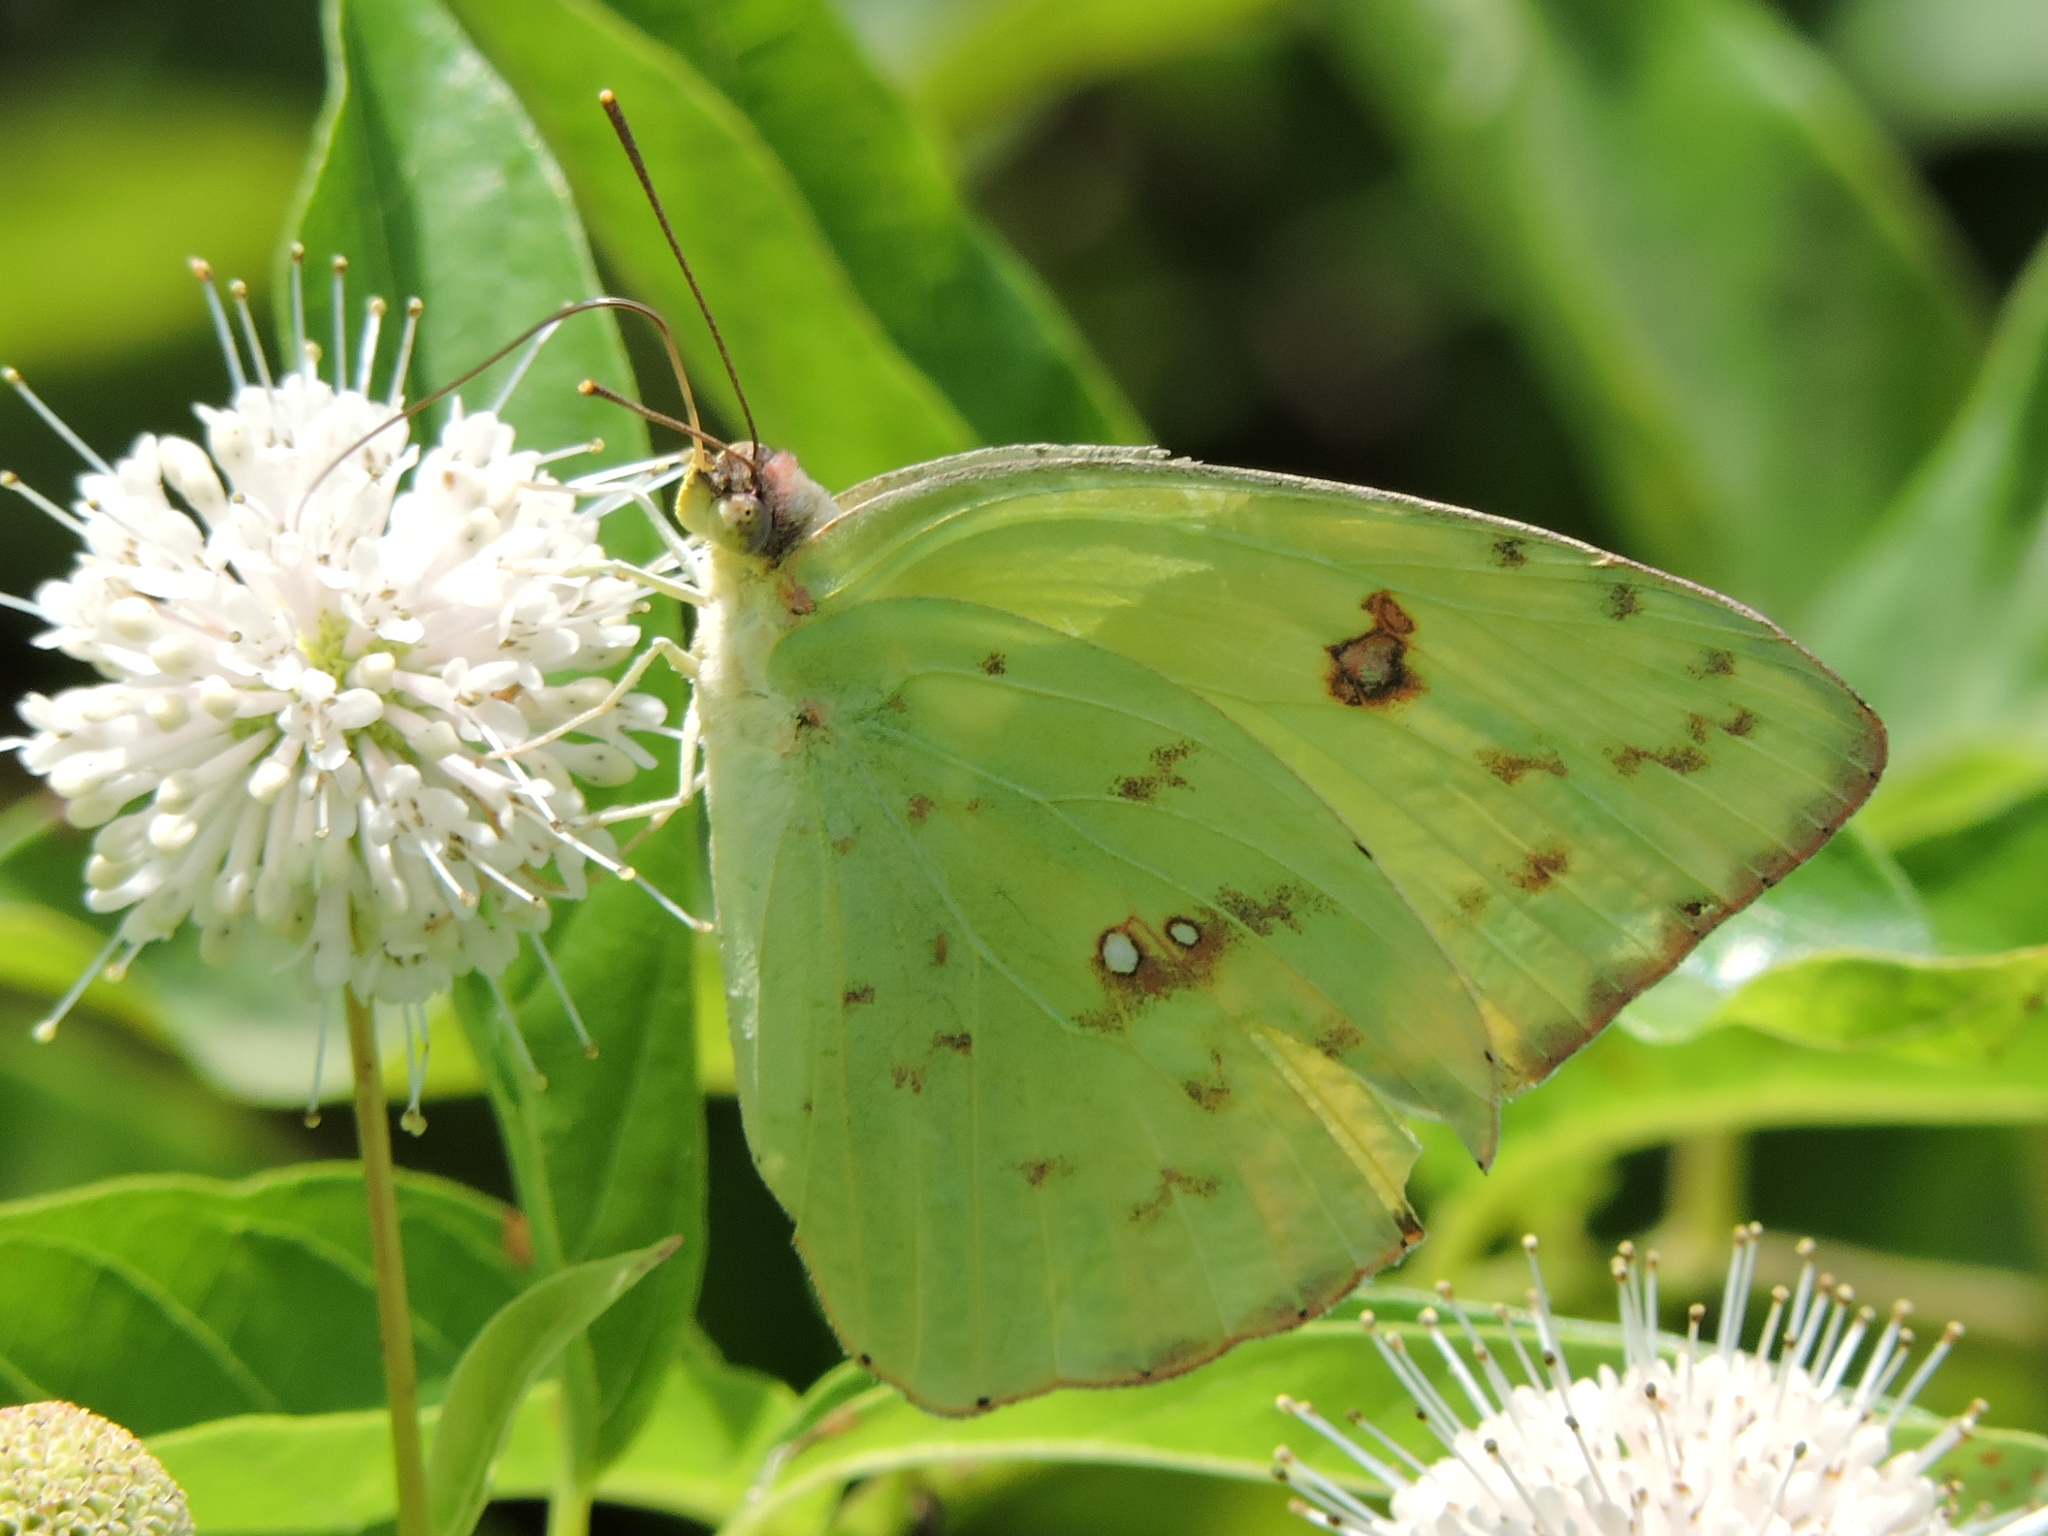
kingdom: Animalia
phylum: Arthropoda
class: Insecta
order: Lepidoptera
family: Pieridae
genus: Phoebis
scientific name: Phoebis sennae
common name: Cloudless sulphur
